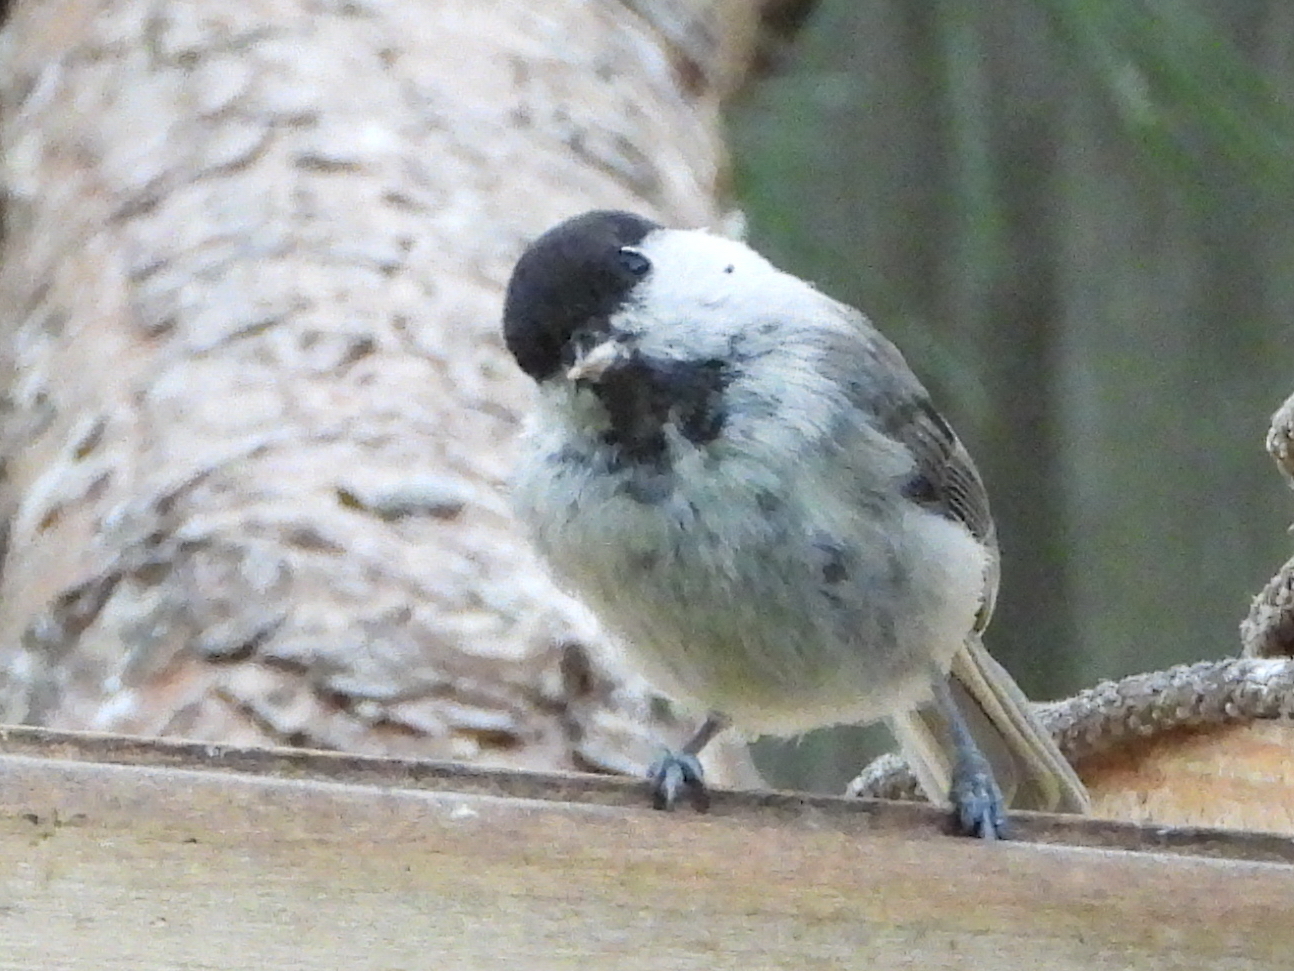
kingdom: Animalia
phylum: Chordata
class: Aves
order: Passeriformes
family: Paridae
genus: Poecile
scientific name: Poecile montanus
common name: Willow tit
